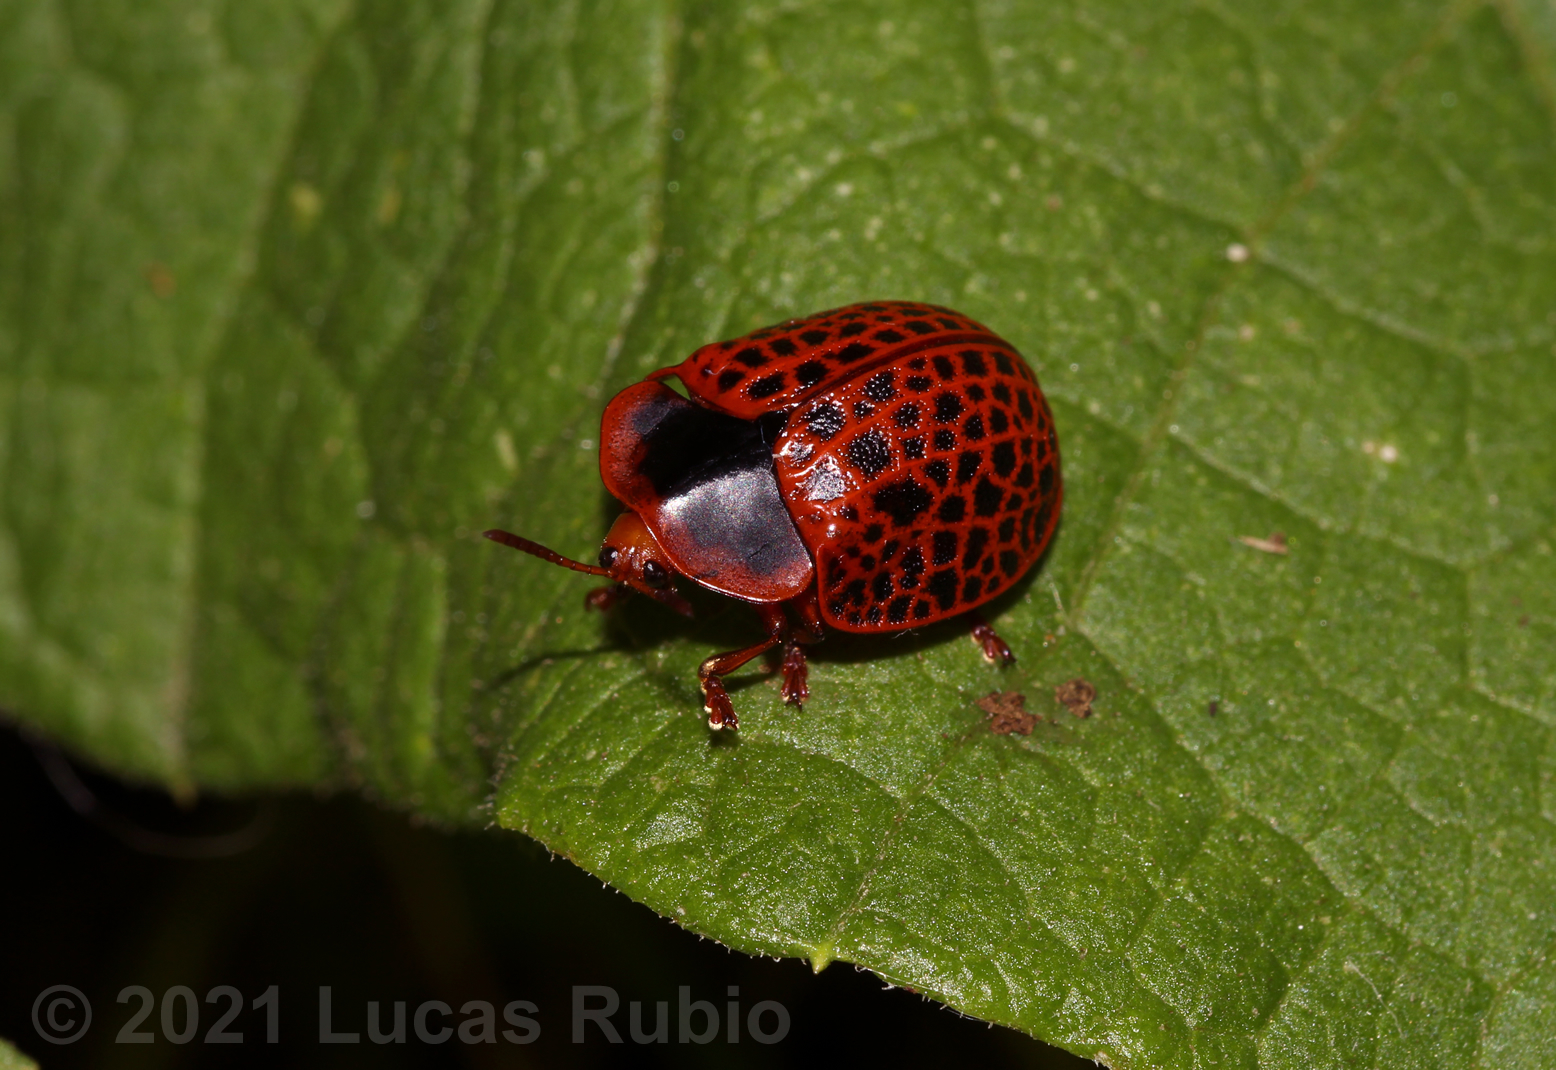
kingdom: Animalia
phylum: Arthropoda
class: Insecta
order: Coleoptera
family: Chrysomelidae
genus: Botanochara
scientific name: Botanochara macularia
